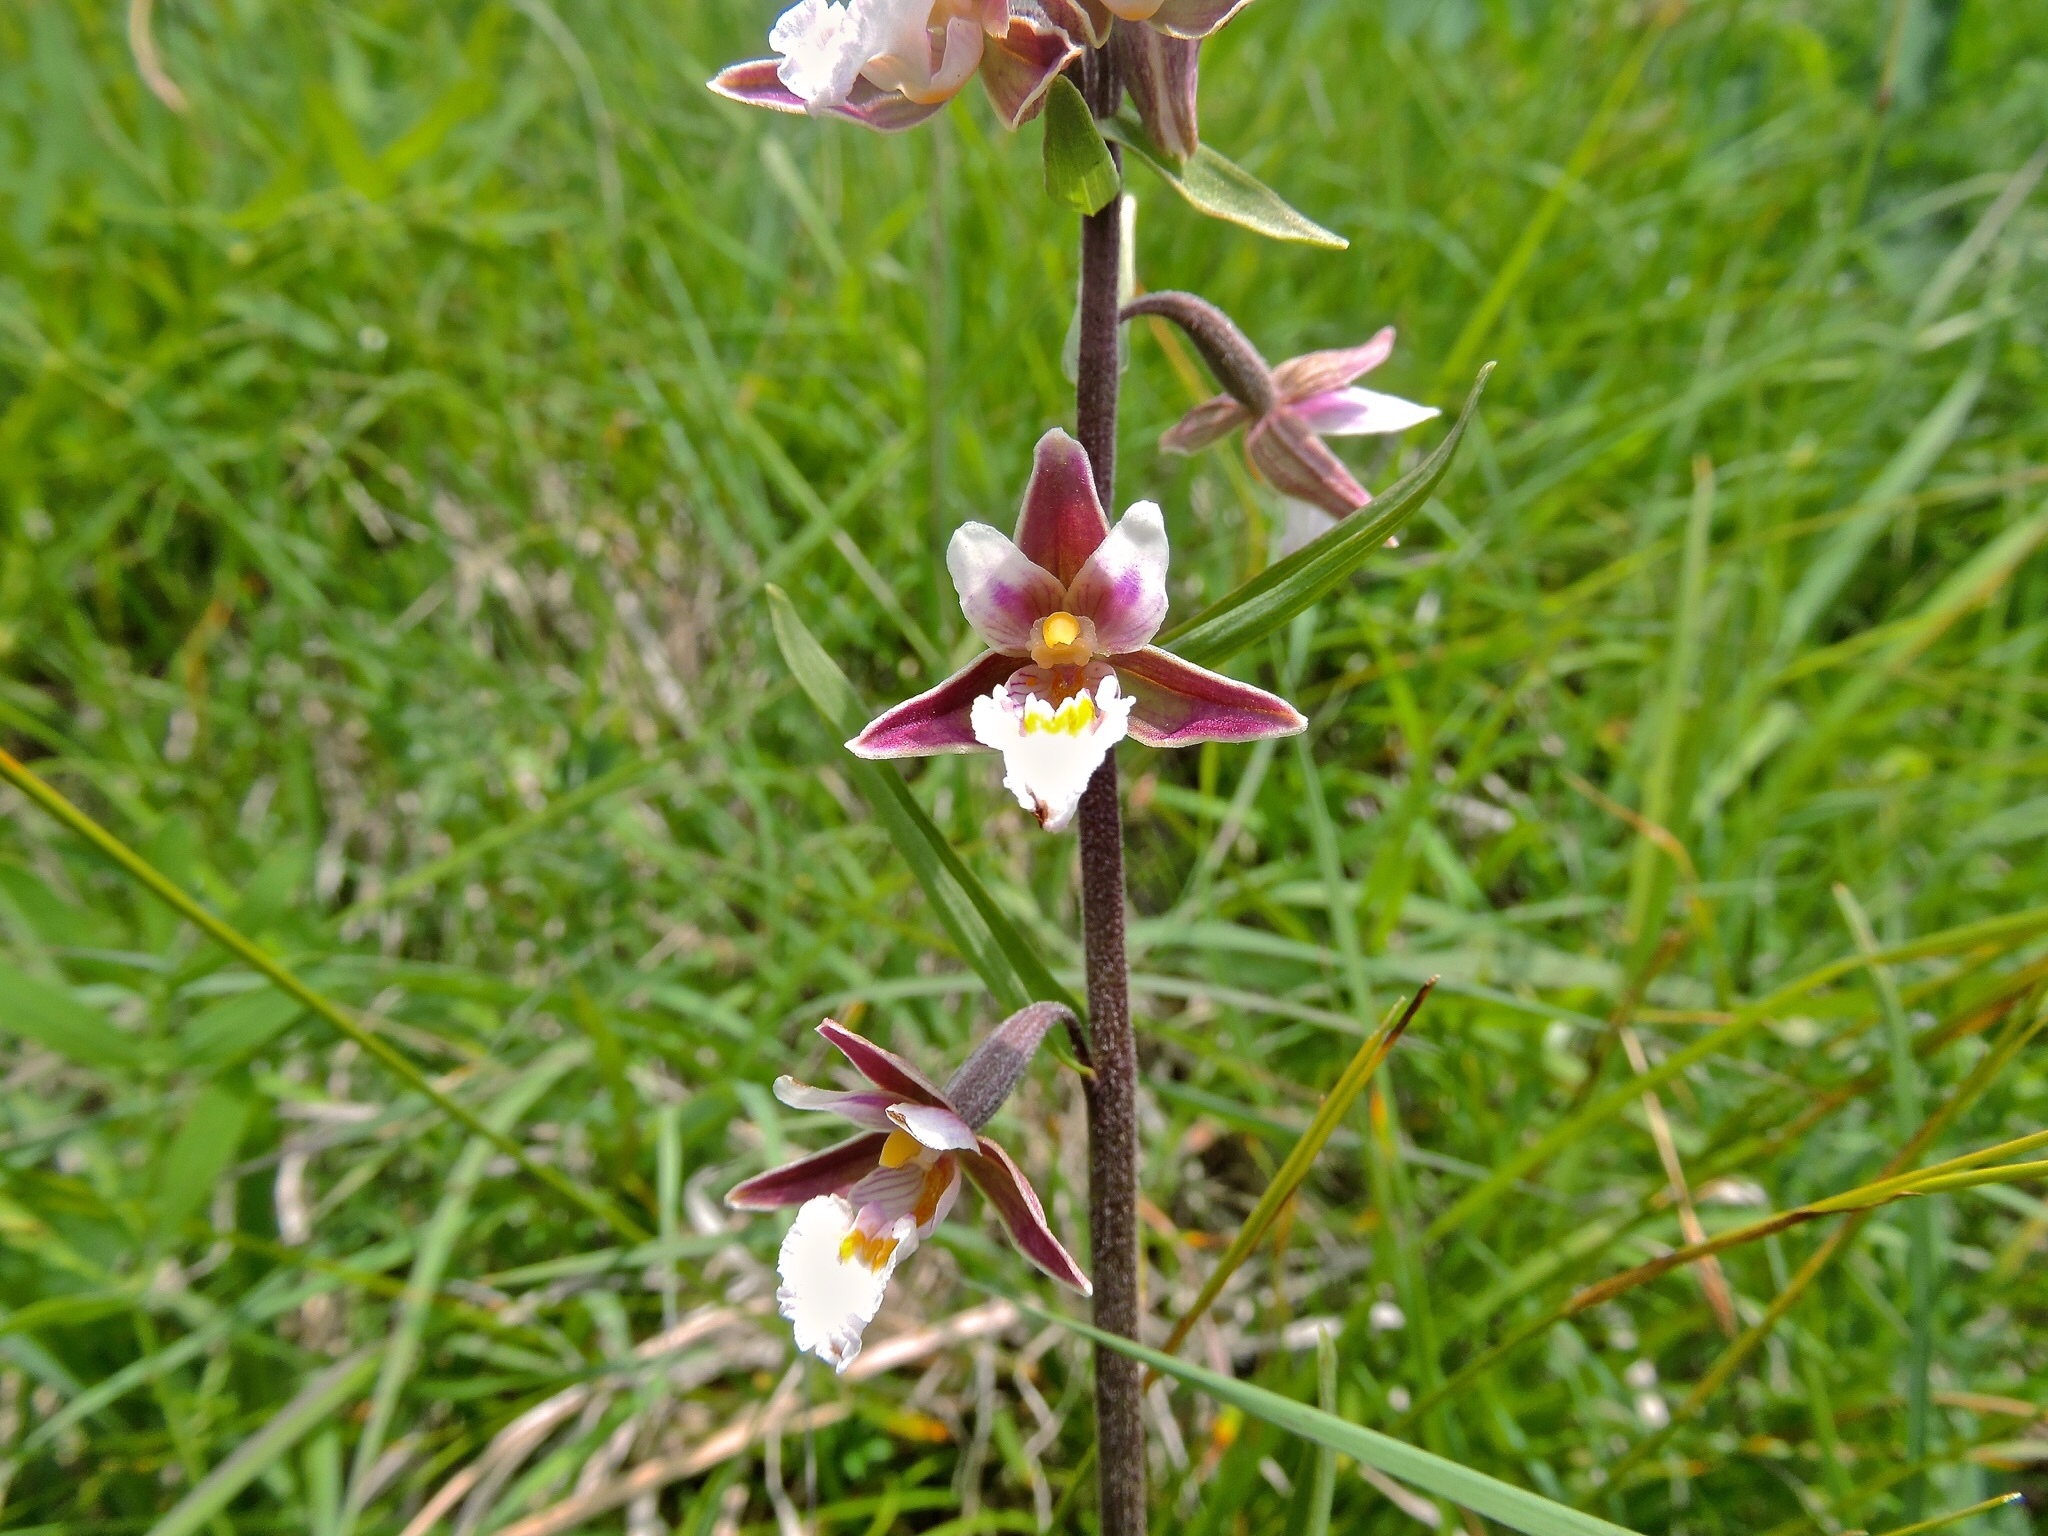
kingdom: Plantae
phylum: Tracheophyta
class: Liliopsida
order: Asparagales
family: Orchidaceae
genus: Epipactis
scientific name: Epipactis palustris
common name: Marsh helleborine
